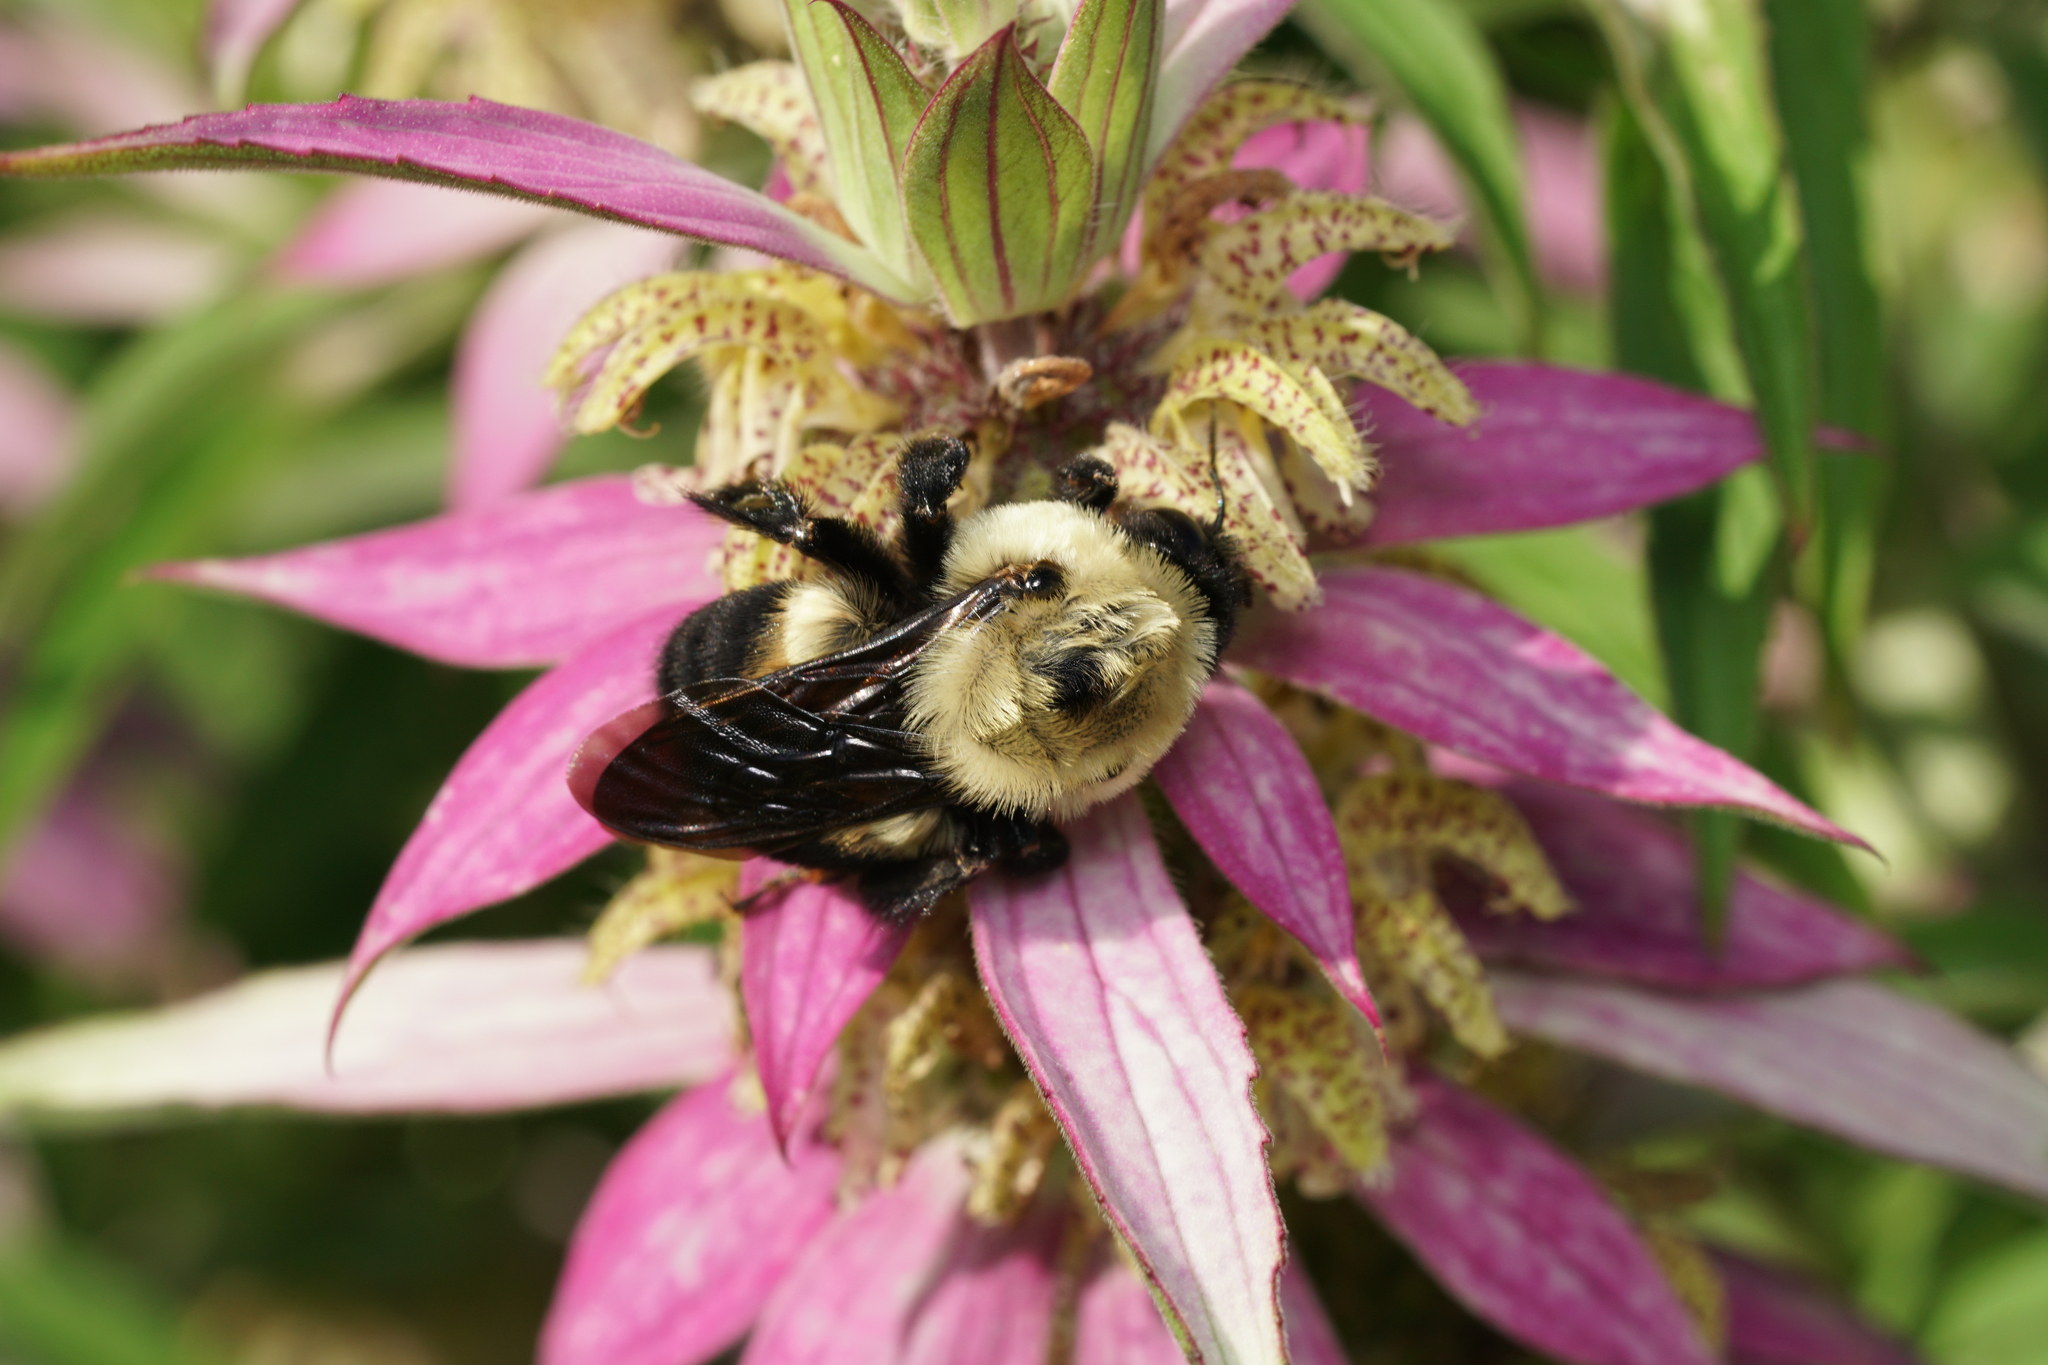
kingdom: Animalia
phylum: Arthropoda
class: Insecta
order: Hymenoptera
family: Apidae
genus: Bombus
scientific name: Bombus griseocollis
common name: Brown-belted bumble bee
